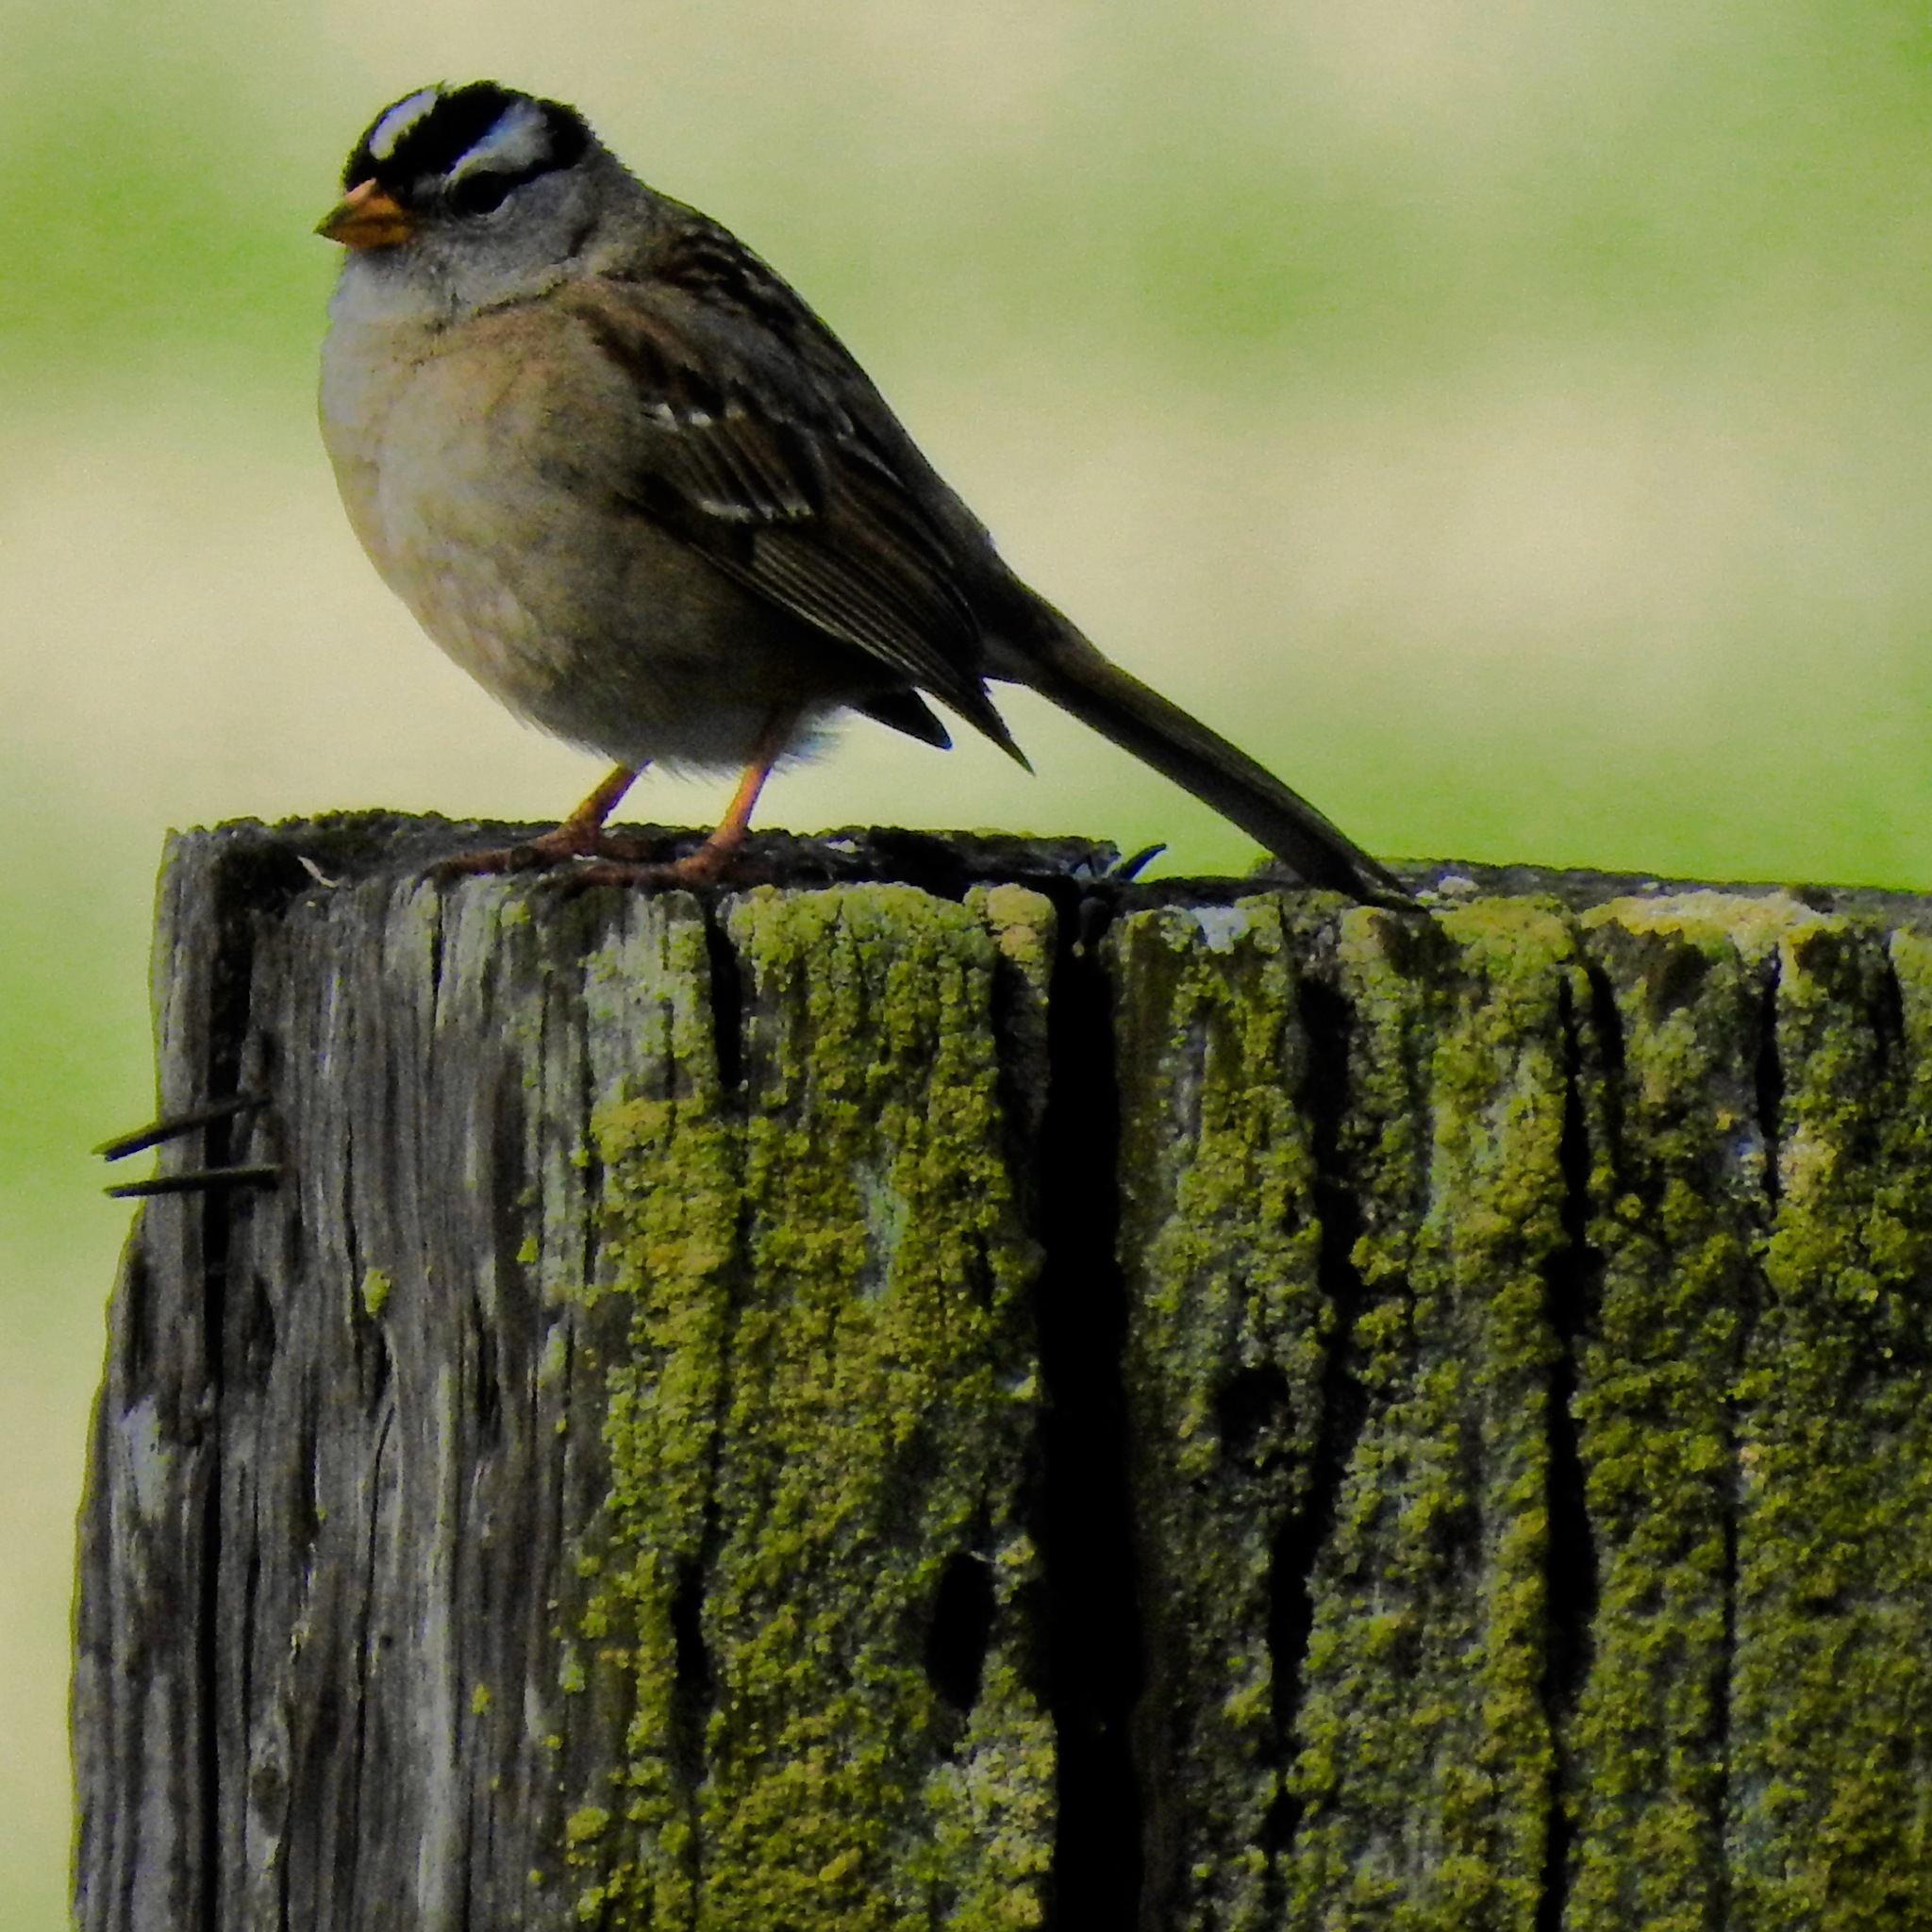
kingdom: Animalia
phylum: Chordata
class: Aves
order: Passeriformes
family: Passerellidae
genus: Zonotrichia
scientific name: Zonotrichia leucophrys
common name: White-crowned sparrow
